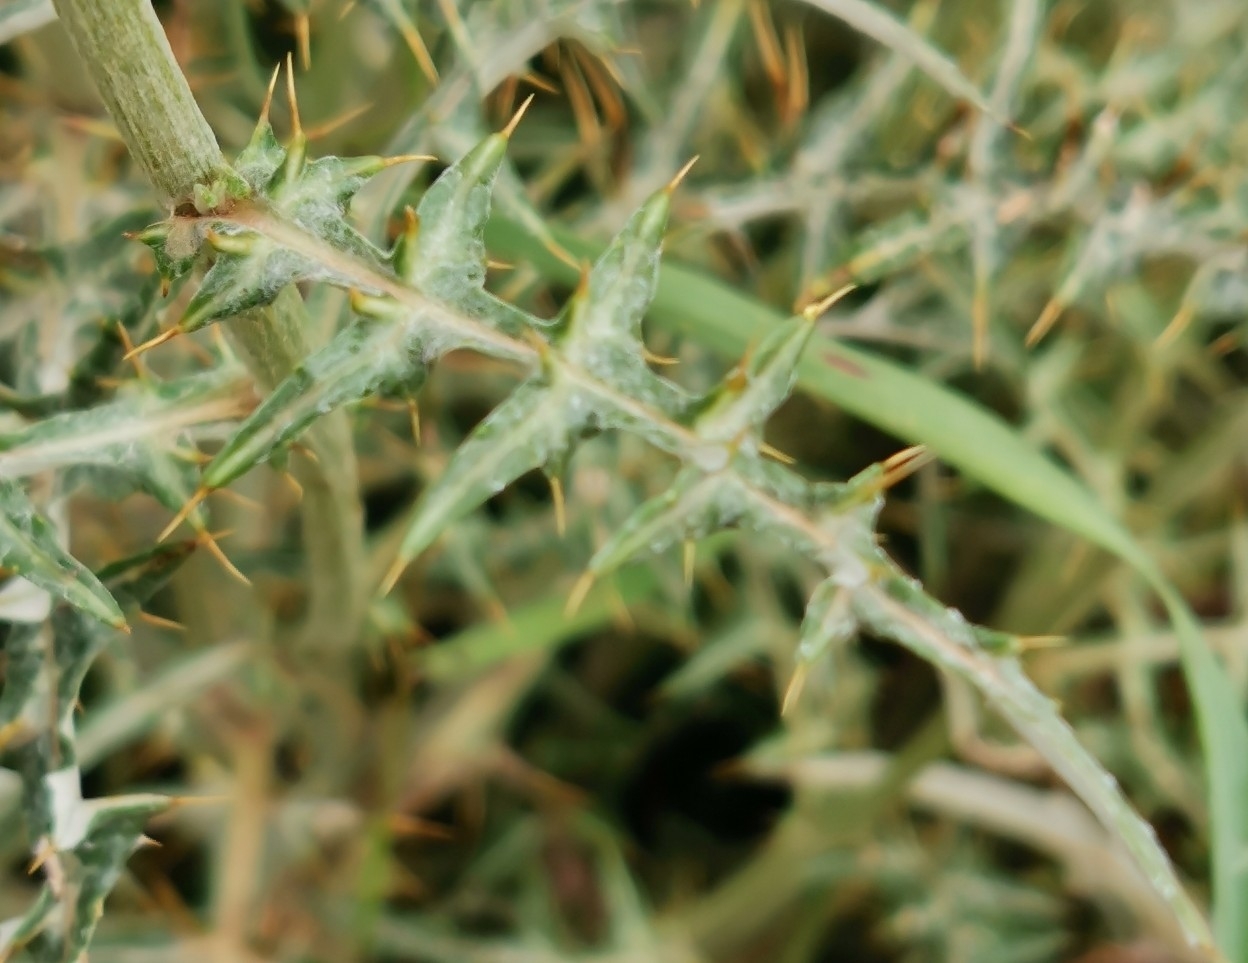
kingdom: Plantae
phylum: Tracheophyta
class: Magnoliopsida
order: Asterales
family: Asteraceae
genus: Galactites
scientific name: Galactites tomentosa
